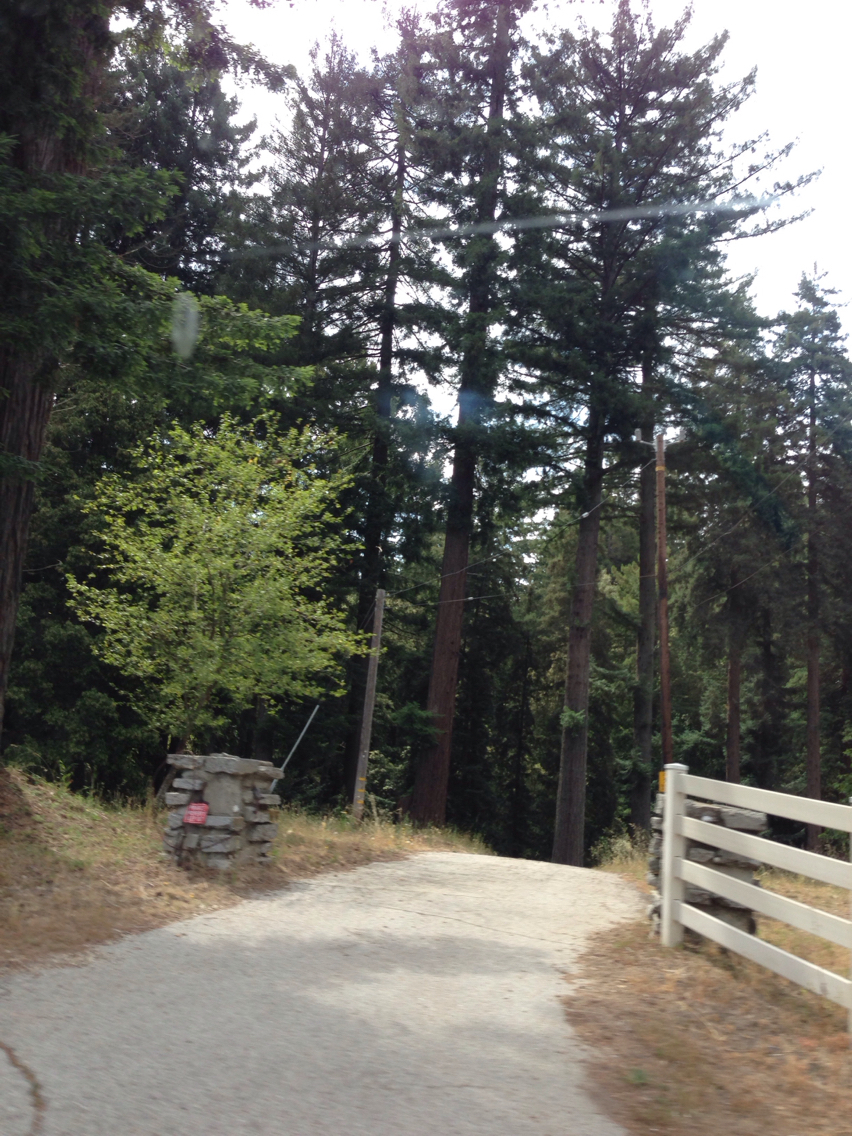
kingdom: Plantae
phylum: Tracheophyta
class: Pinopsida
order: Pinales
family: Cupressaceae
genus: Sequoia
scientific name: Sequoia sempervirens
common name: Coast redwood
